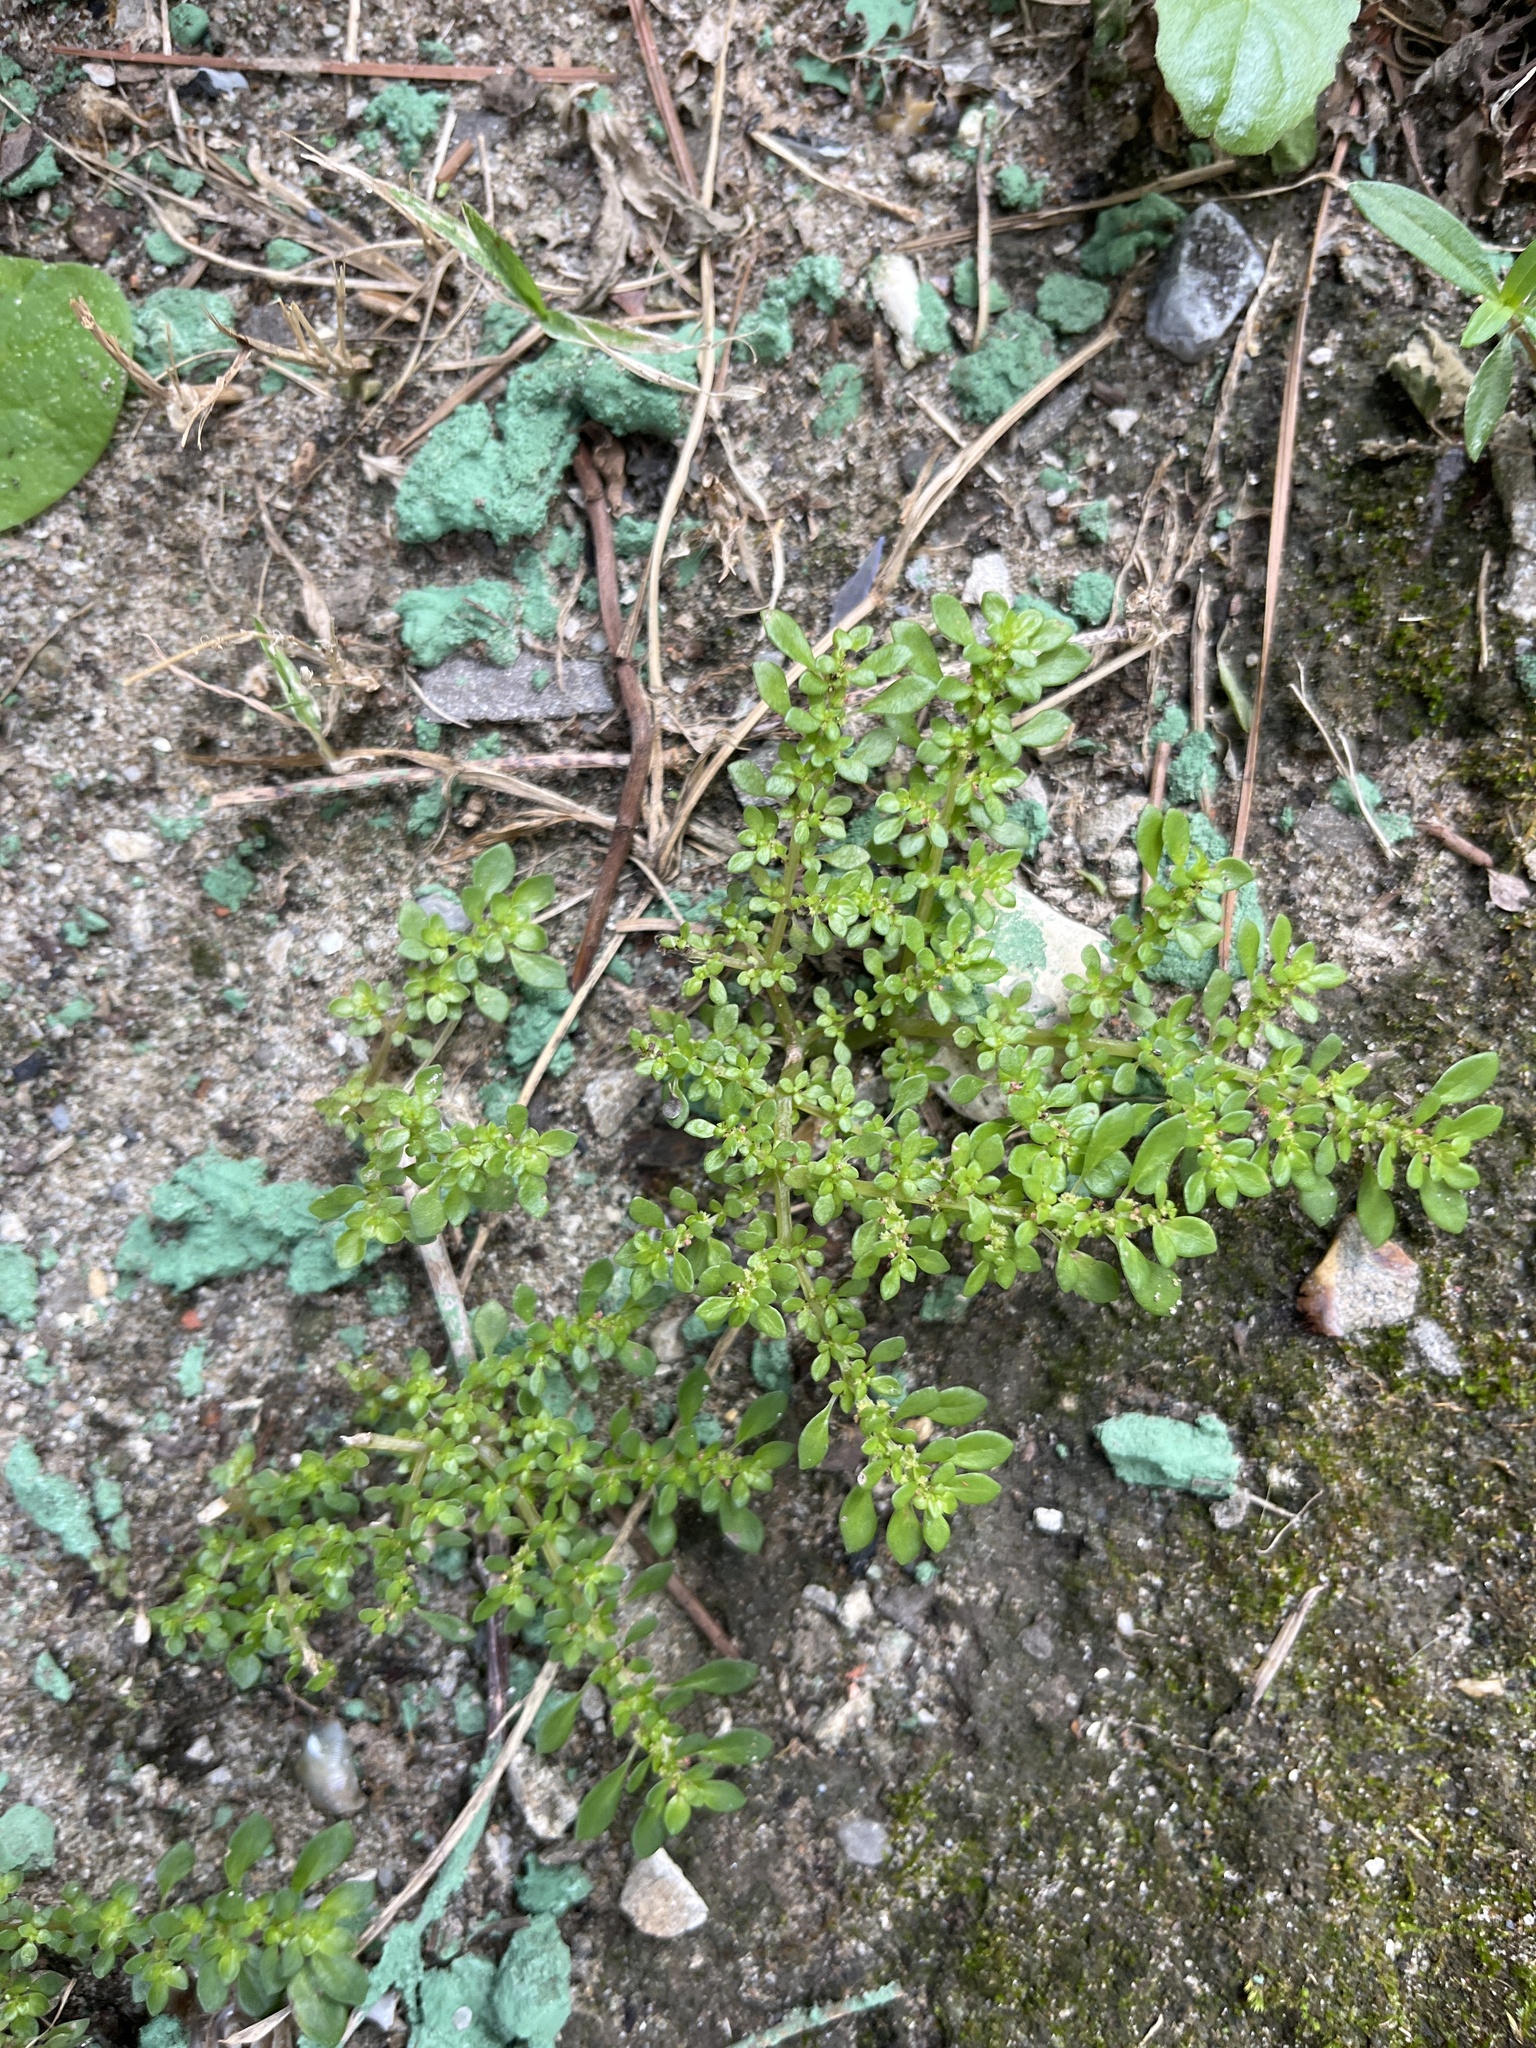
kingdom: Plantae
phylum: Tracheophyta
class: Magnoliopsida
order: Rosales
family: Urticaceae
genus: Pilea
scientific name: Pilea microphylla
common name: Artillery-plant
